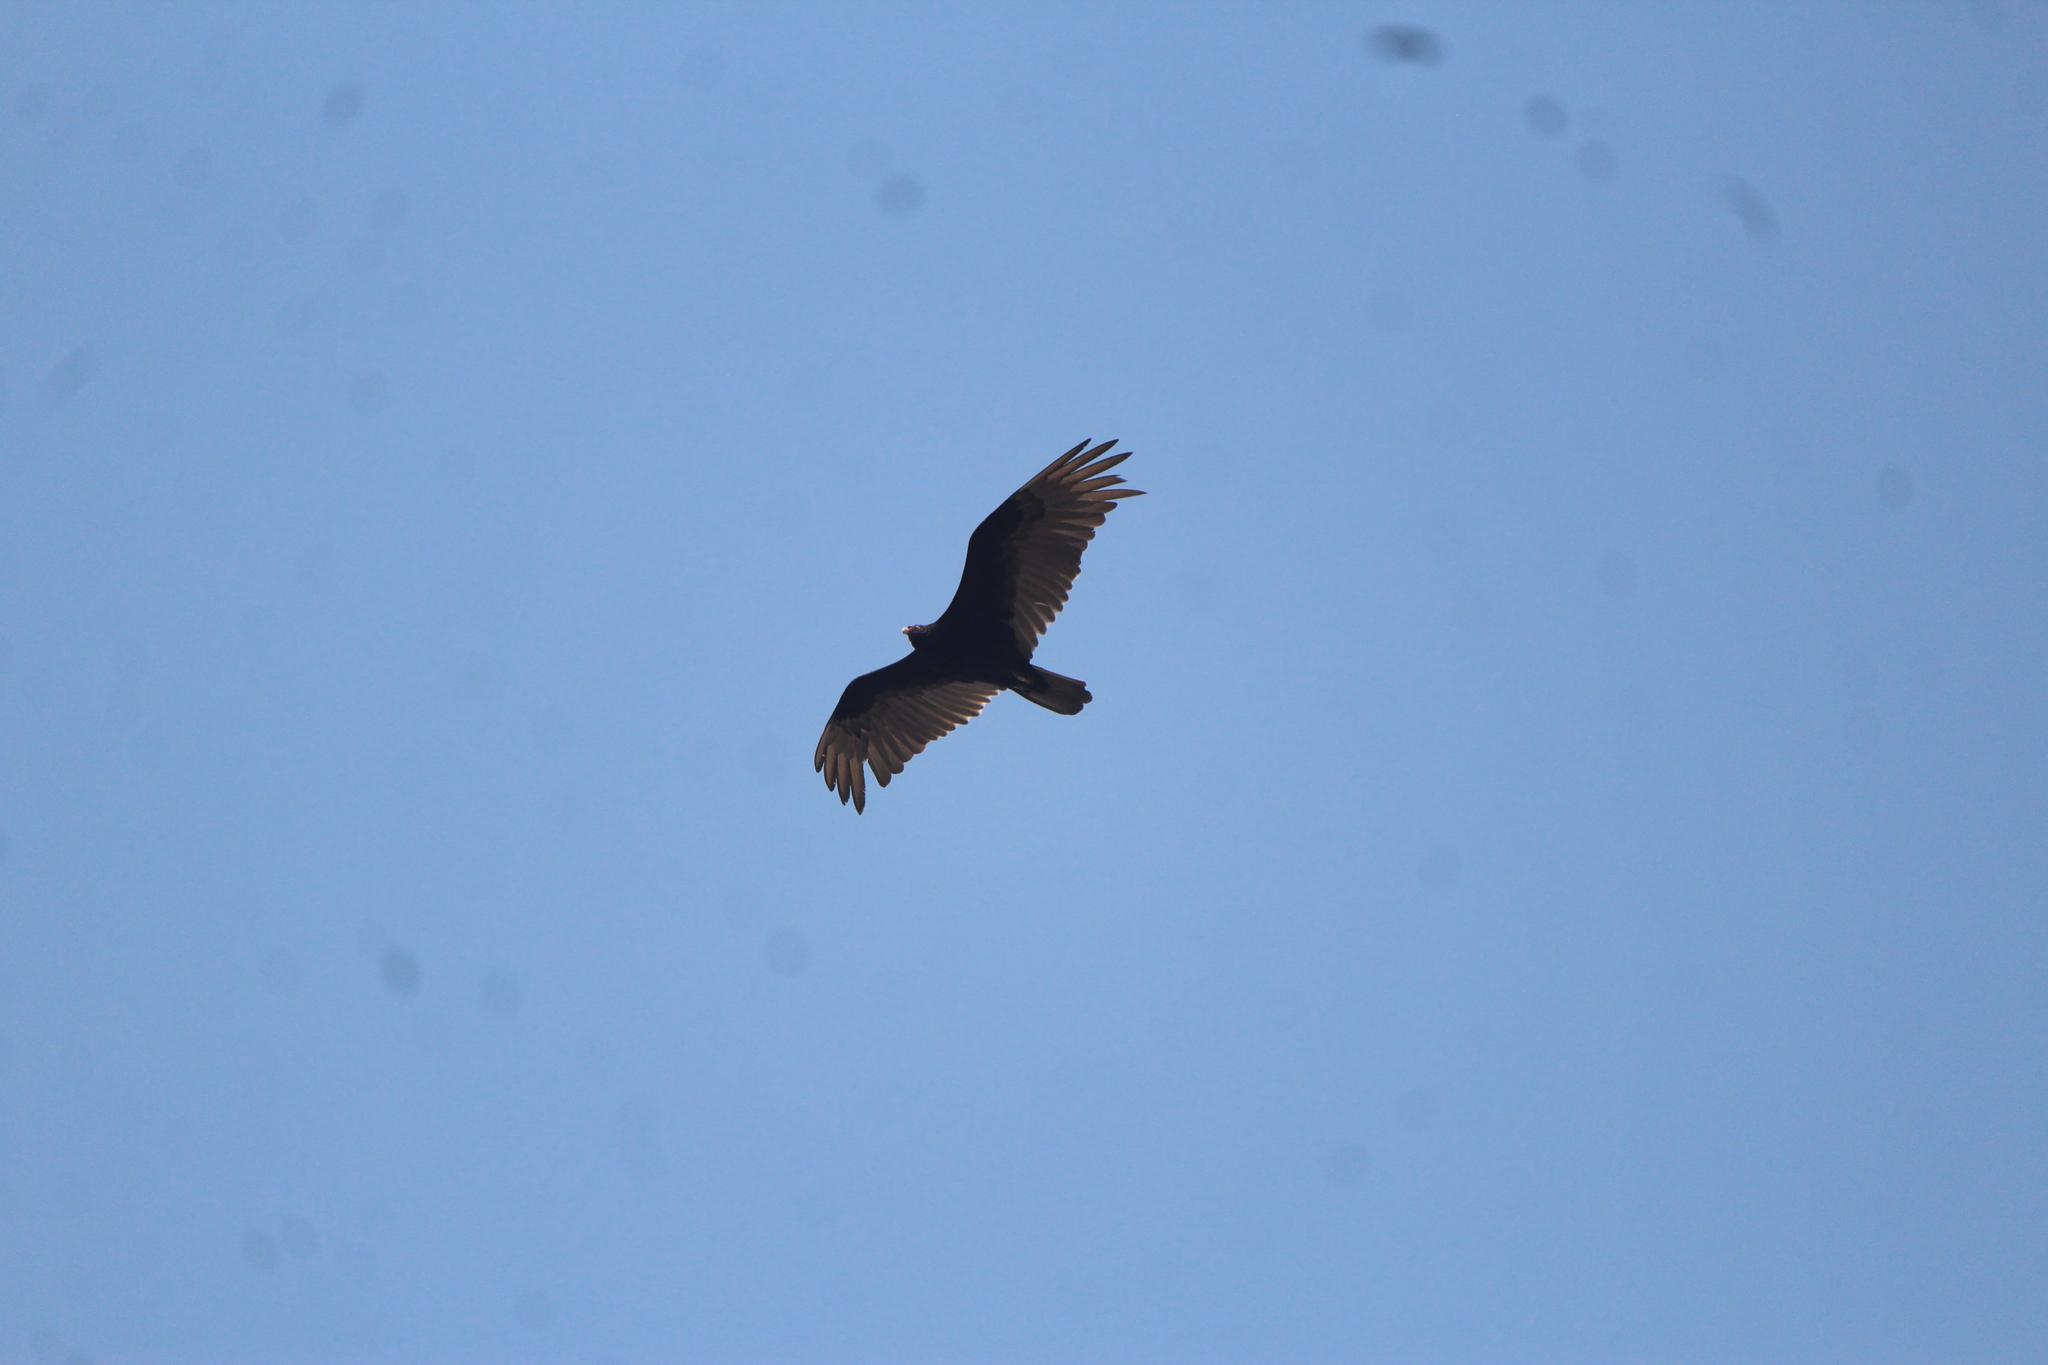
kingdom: Animalia
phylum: Chordata
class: Aves
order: Accipitriformes
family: Cathartidae
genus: Cathartes
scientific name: Cathartes aura
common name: Turkey vulture
